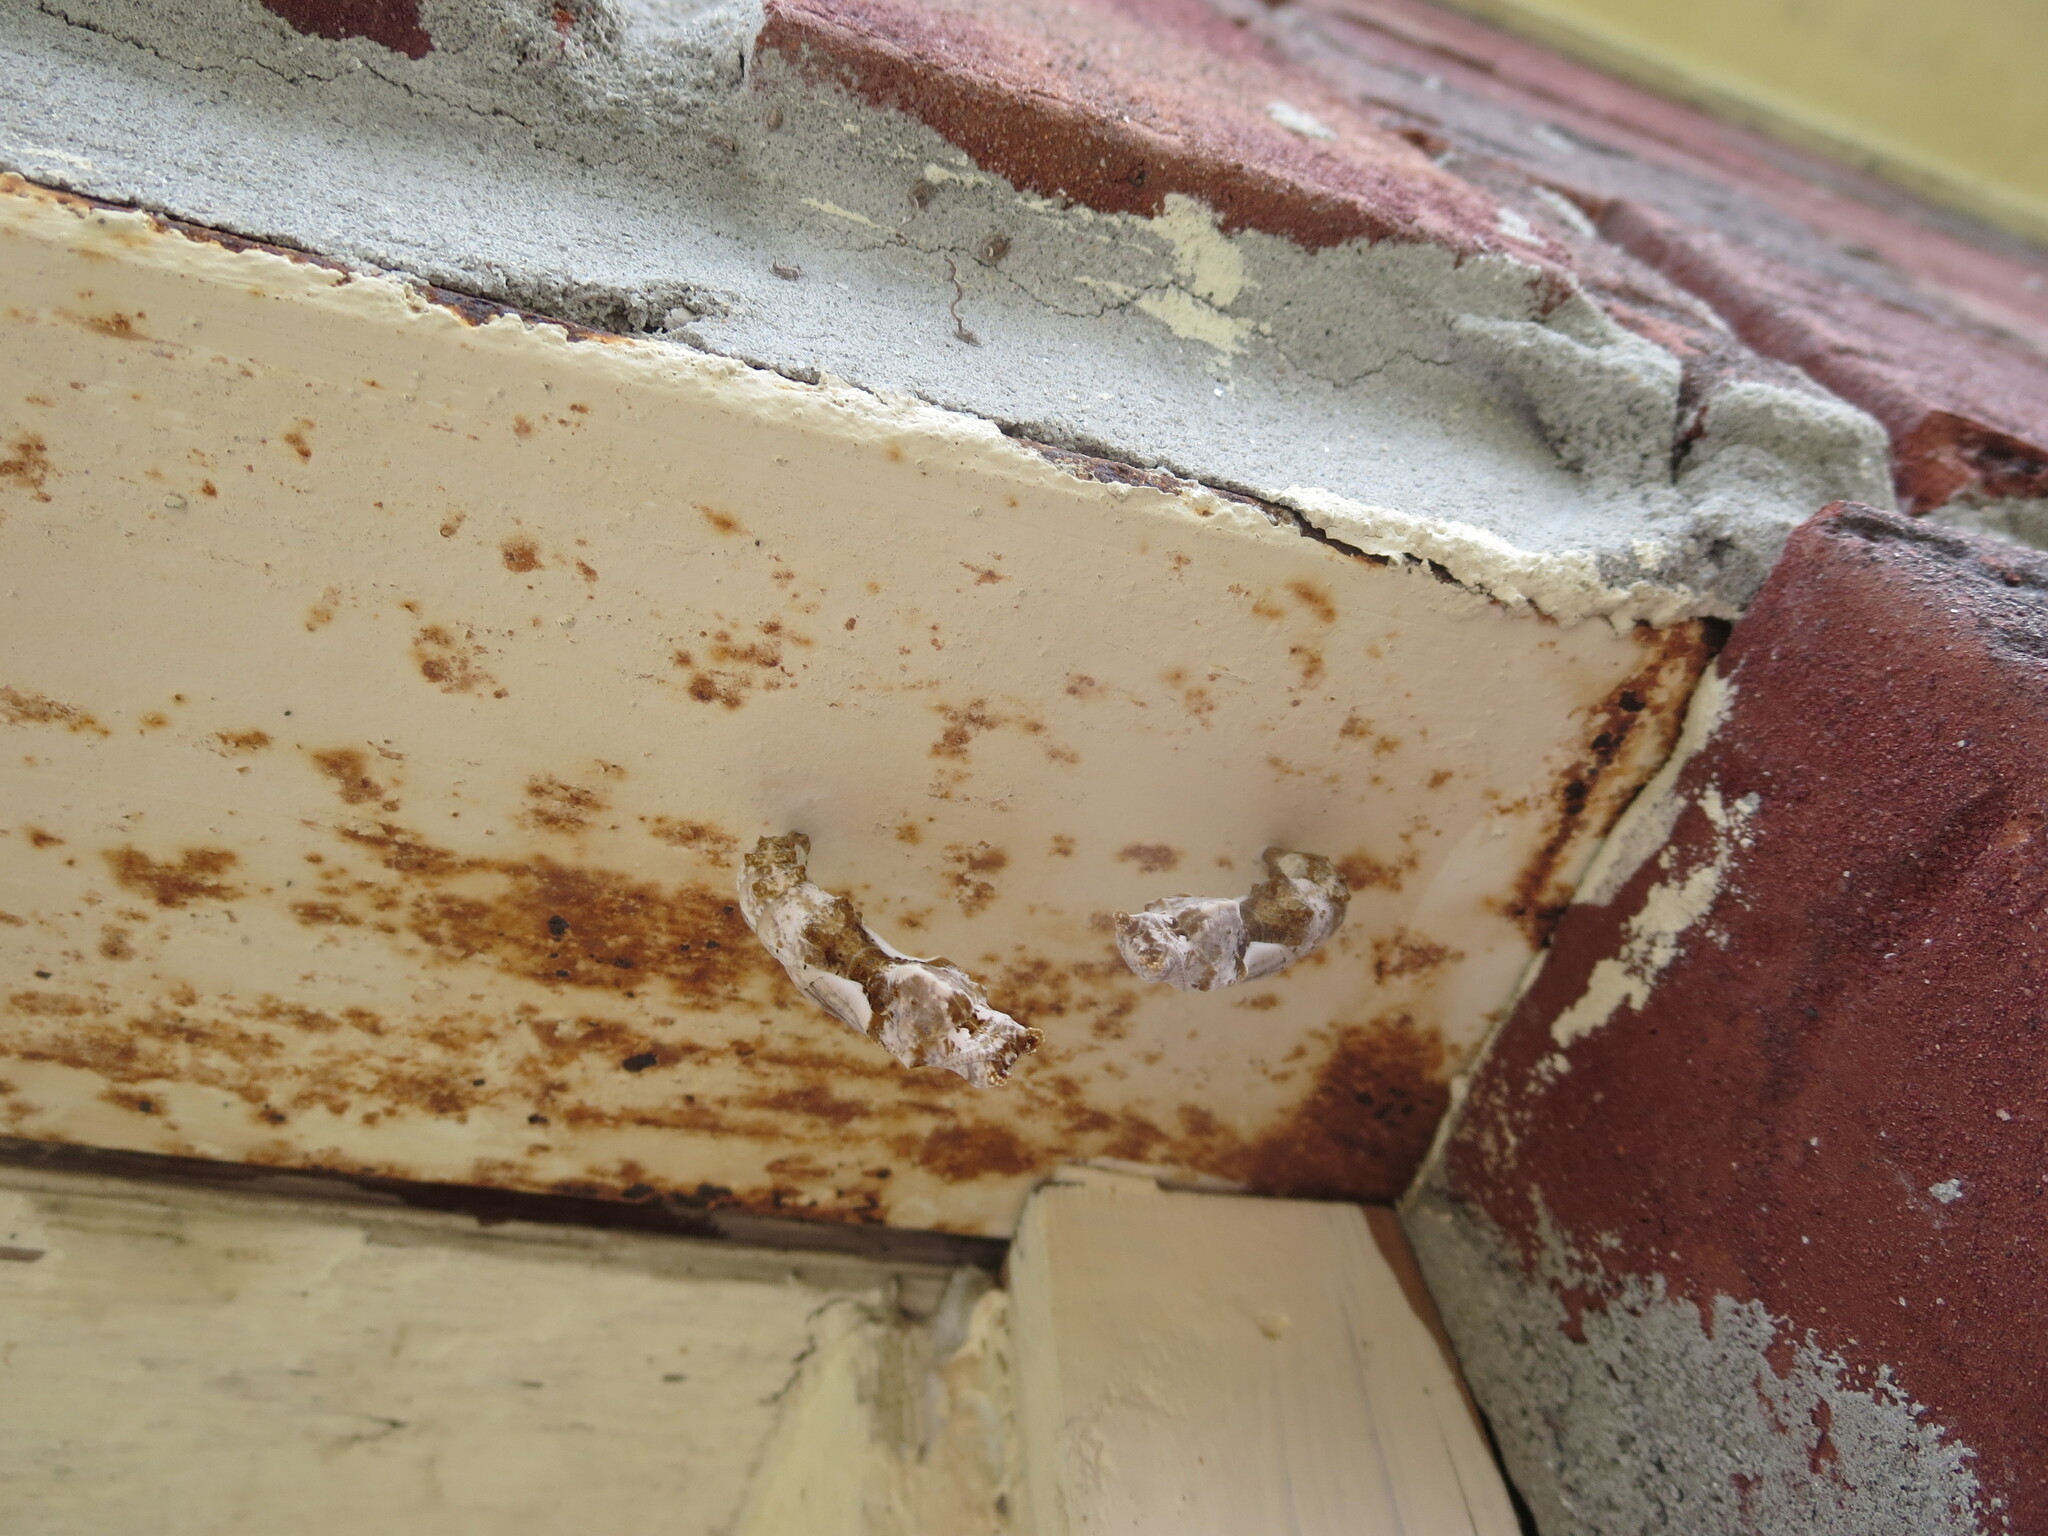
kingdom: Animalia
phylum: Arthropoda
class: Insecta
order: Lepidoptera
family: Nymphalidae
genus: Dione
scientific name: Dione vanillae
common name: Gulf fritillary
